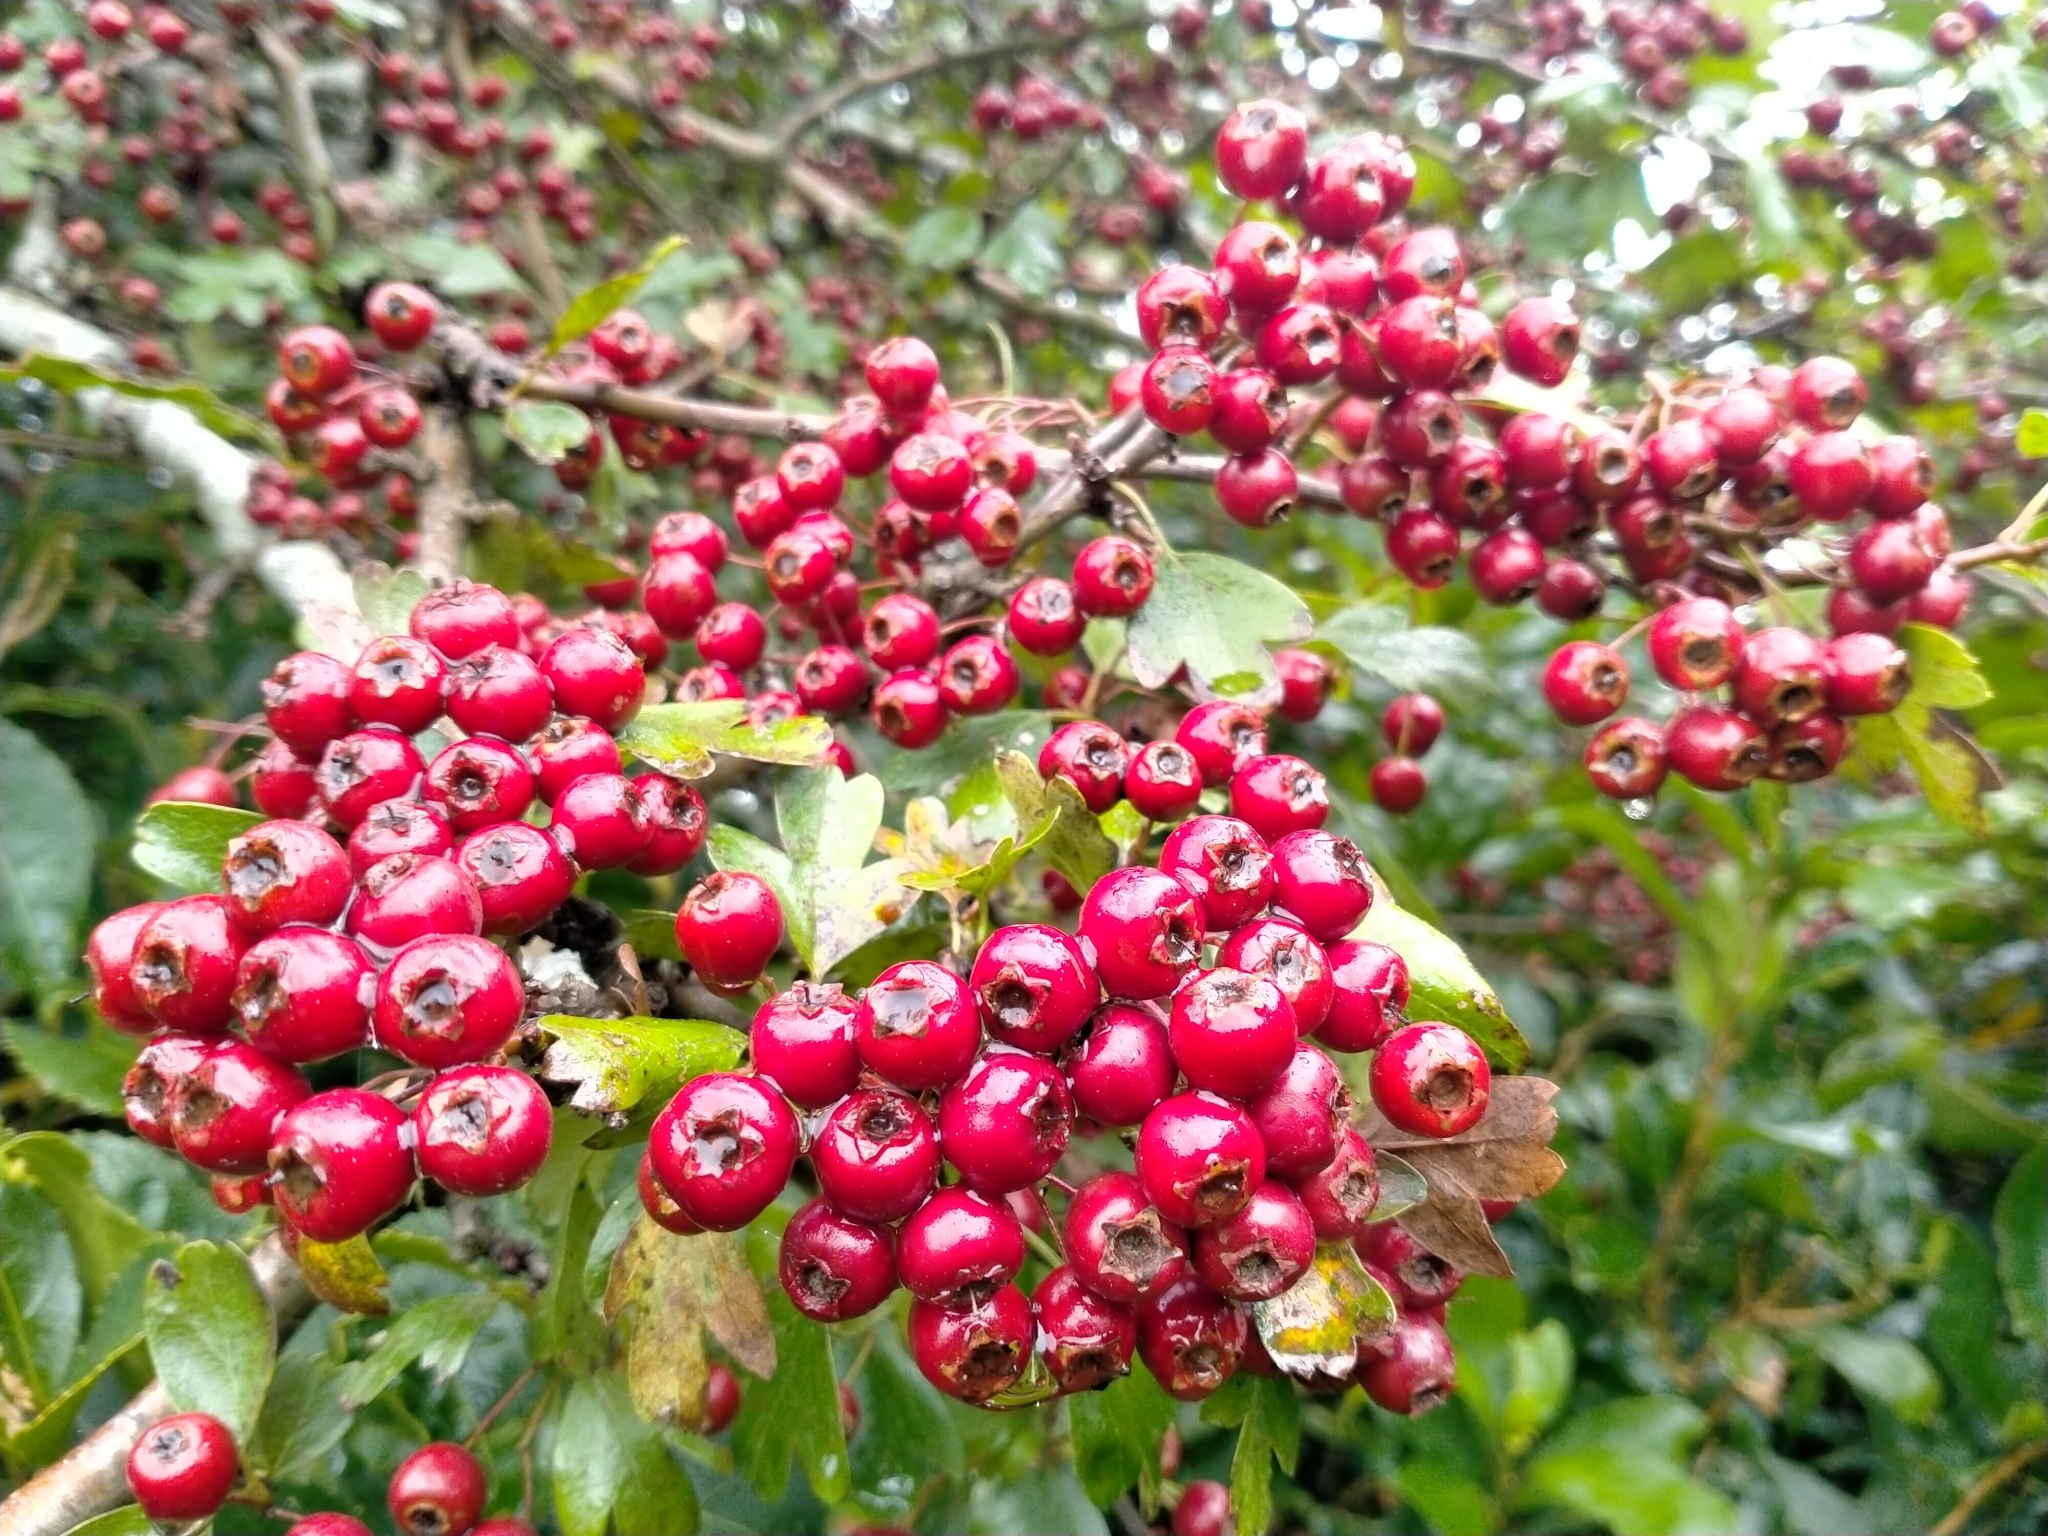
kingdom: Plantae
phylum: Tracheophyta
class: Magnoliopsida
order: Rosales
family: Rosaceae
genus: Crataegus
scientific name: Crataegus monogyna
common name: Hawthorn
